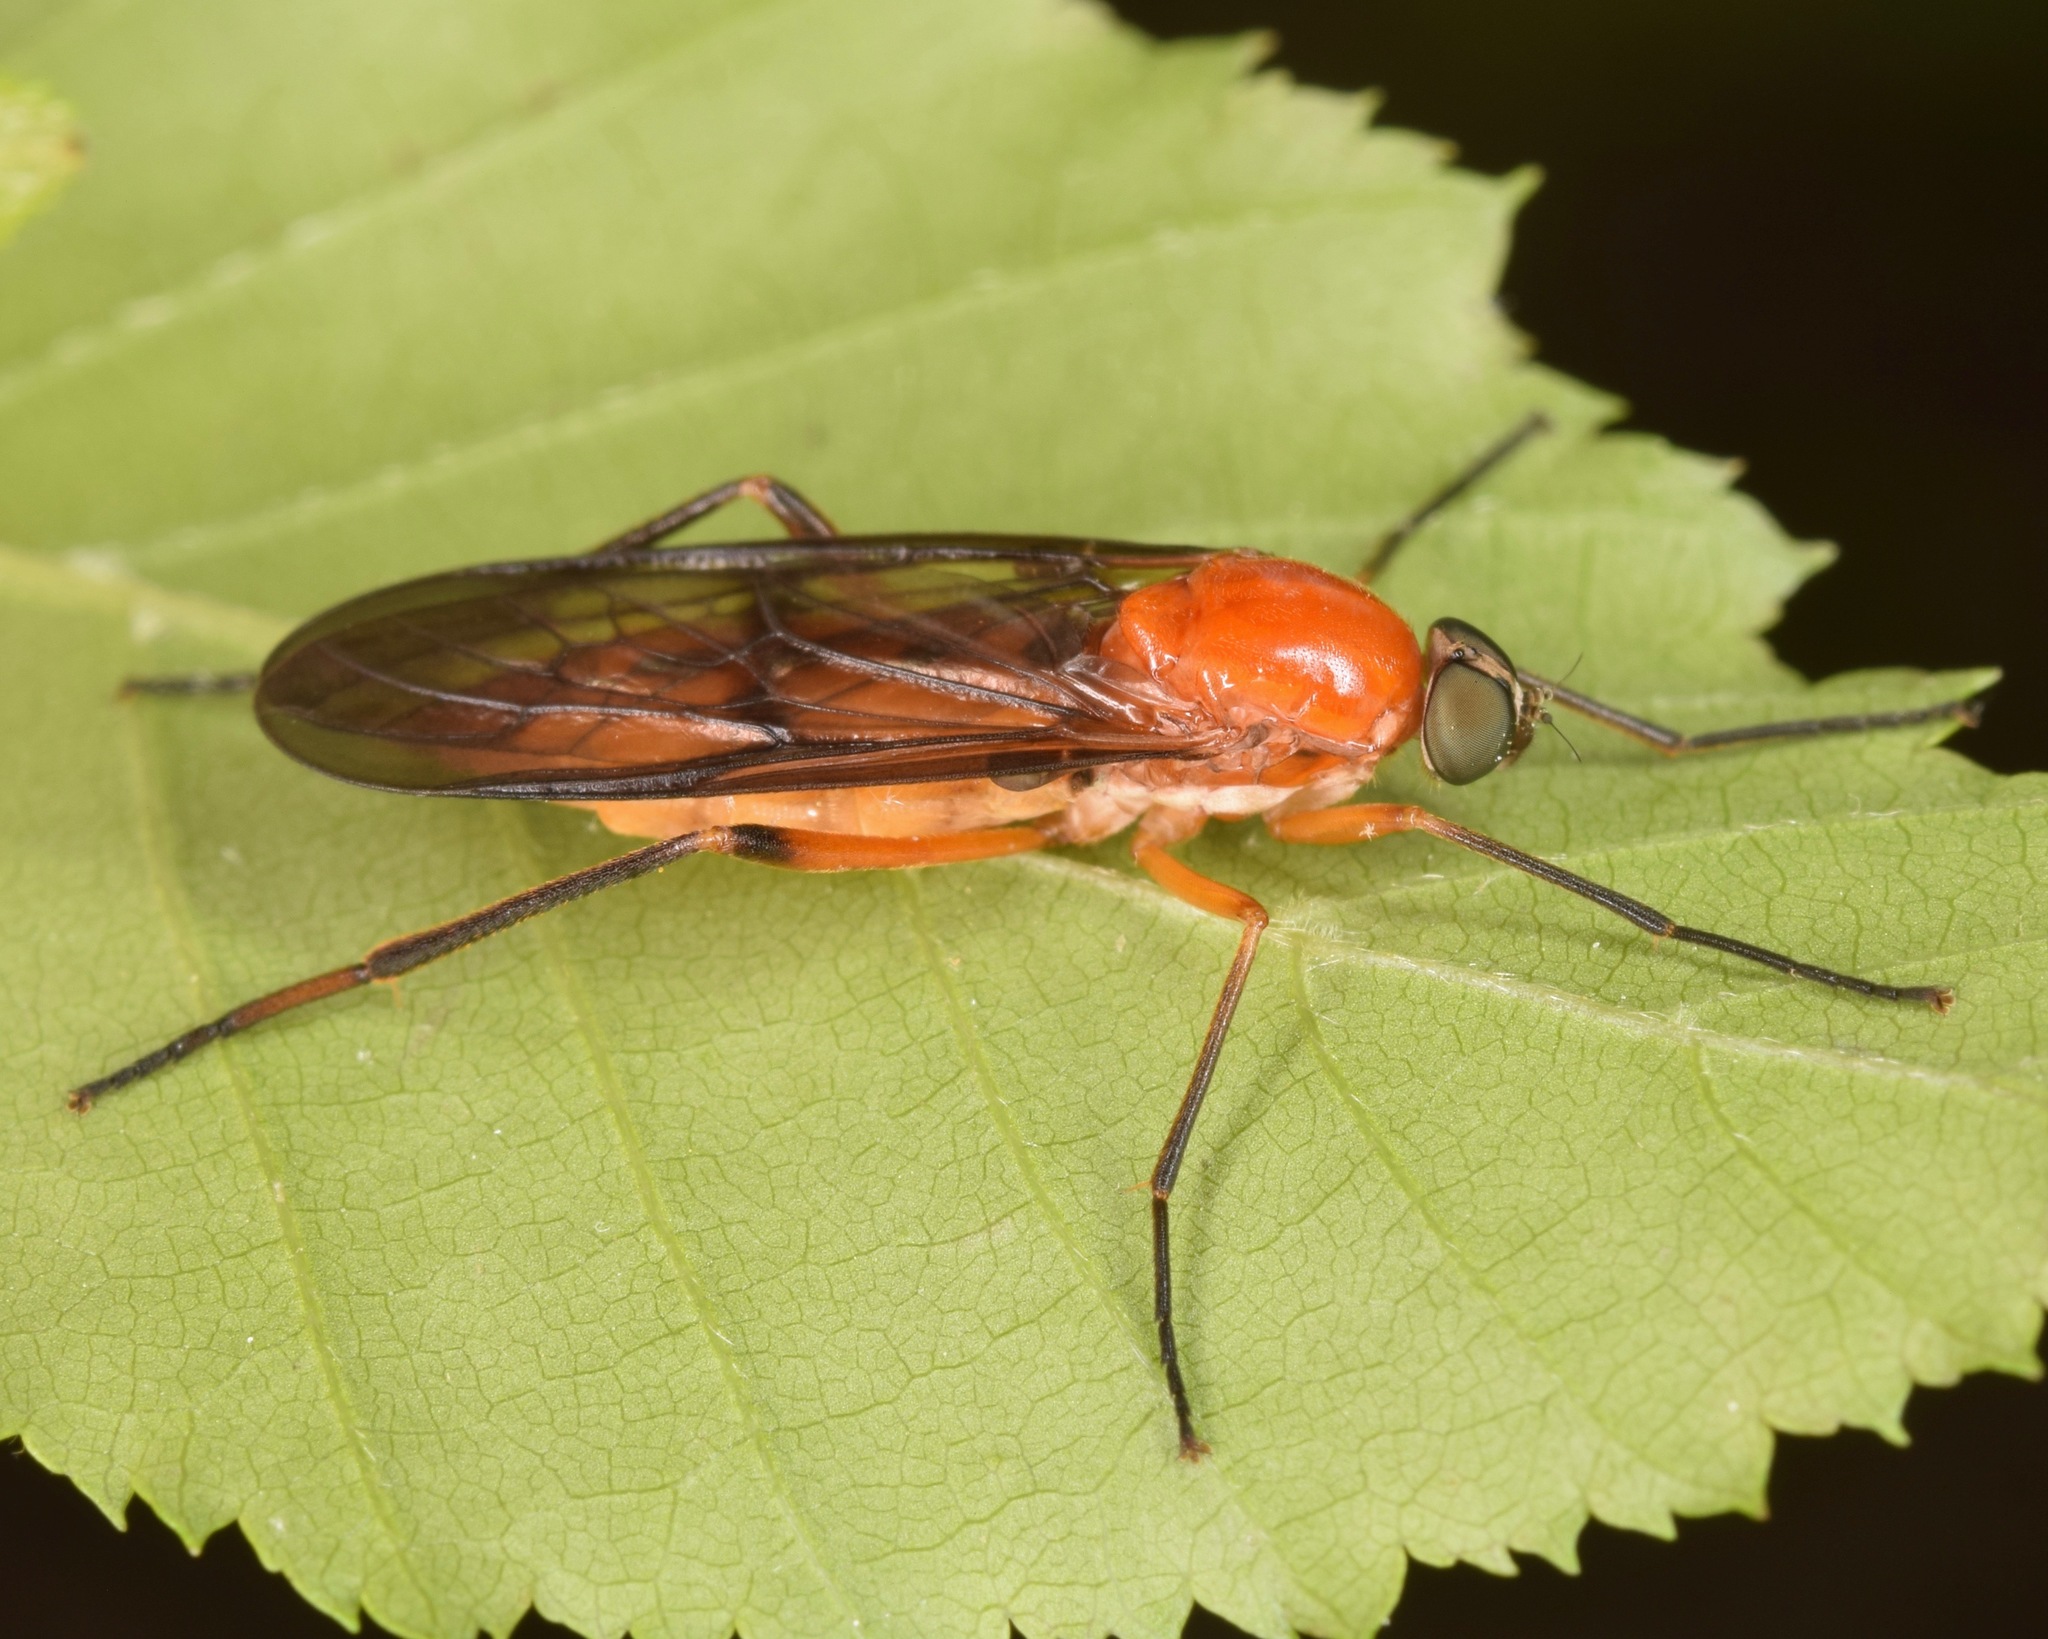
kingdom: Animalia
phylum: Arthropoda
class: Insecta
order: Diptera
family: Xylophagidae
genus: Dialysis
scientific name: Dialysis rufithorax
